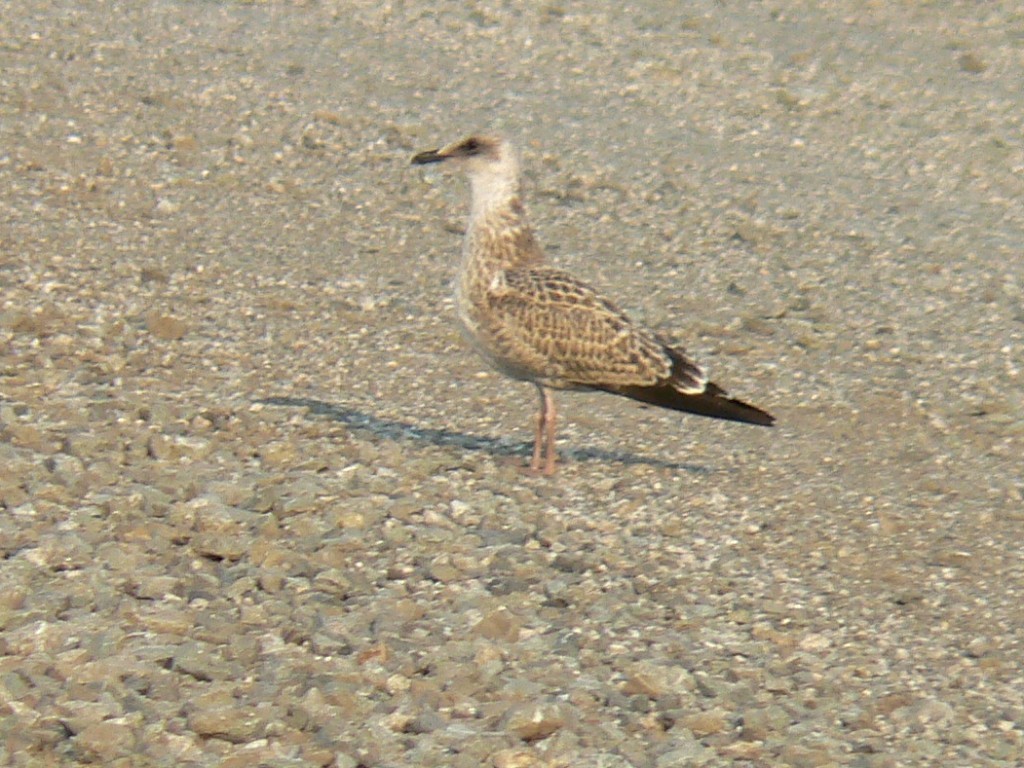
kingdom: Animalia
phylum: Chordata
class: Aves
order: Charadriiformes
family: Laridae
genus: Larus
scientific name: Larus fuscus
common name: Lesser black-backed gull
